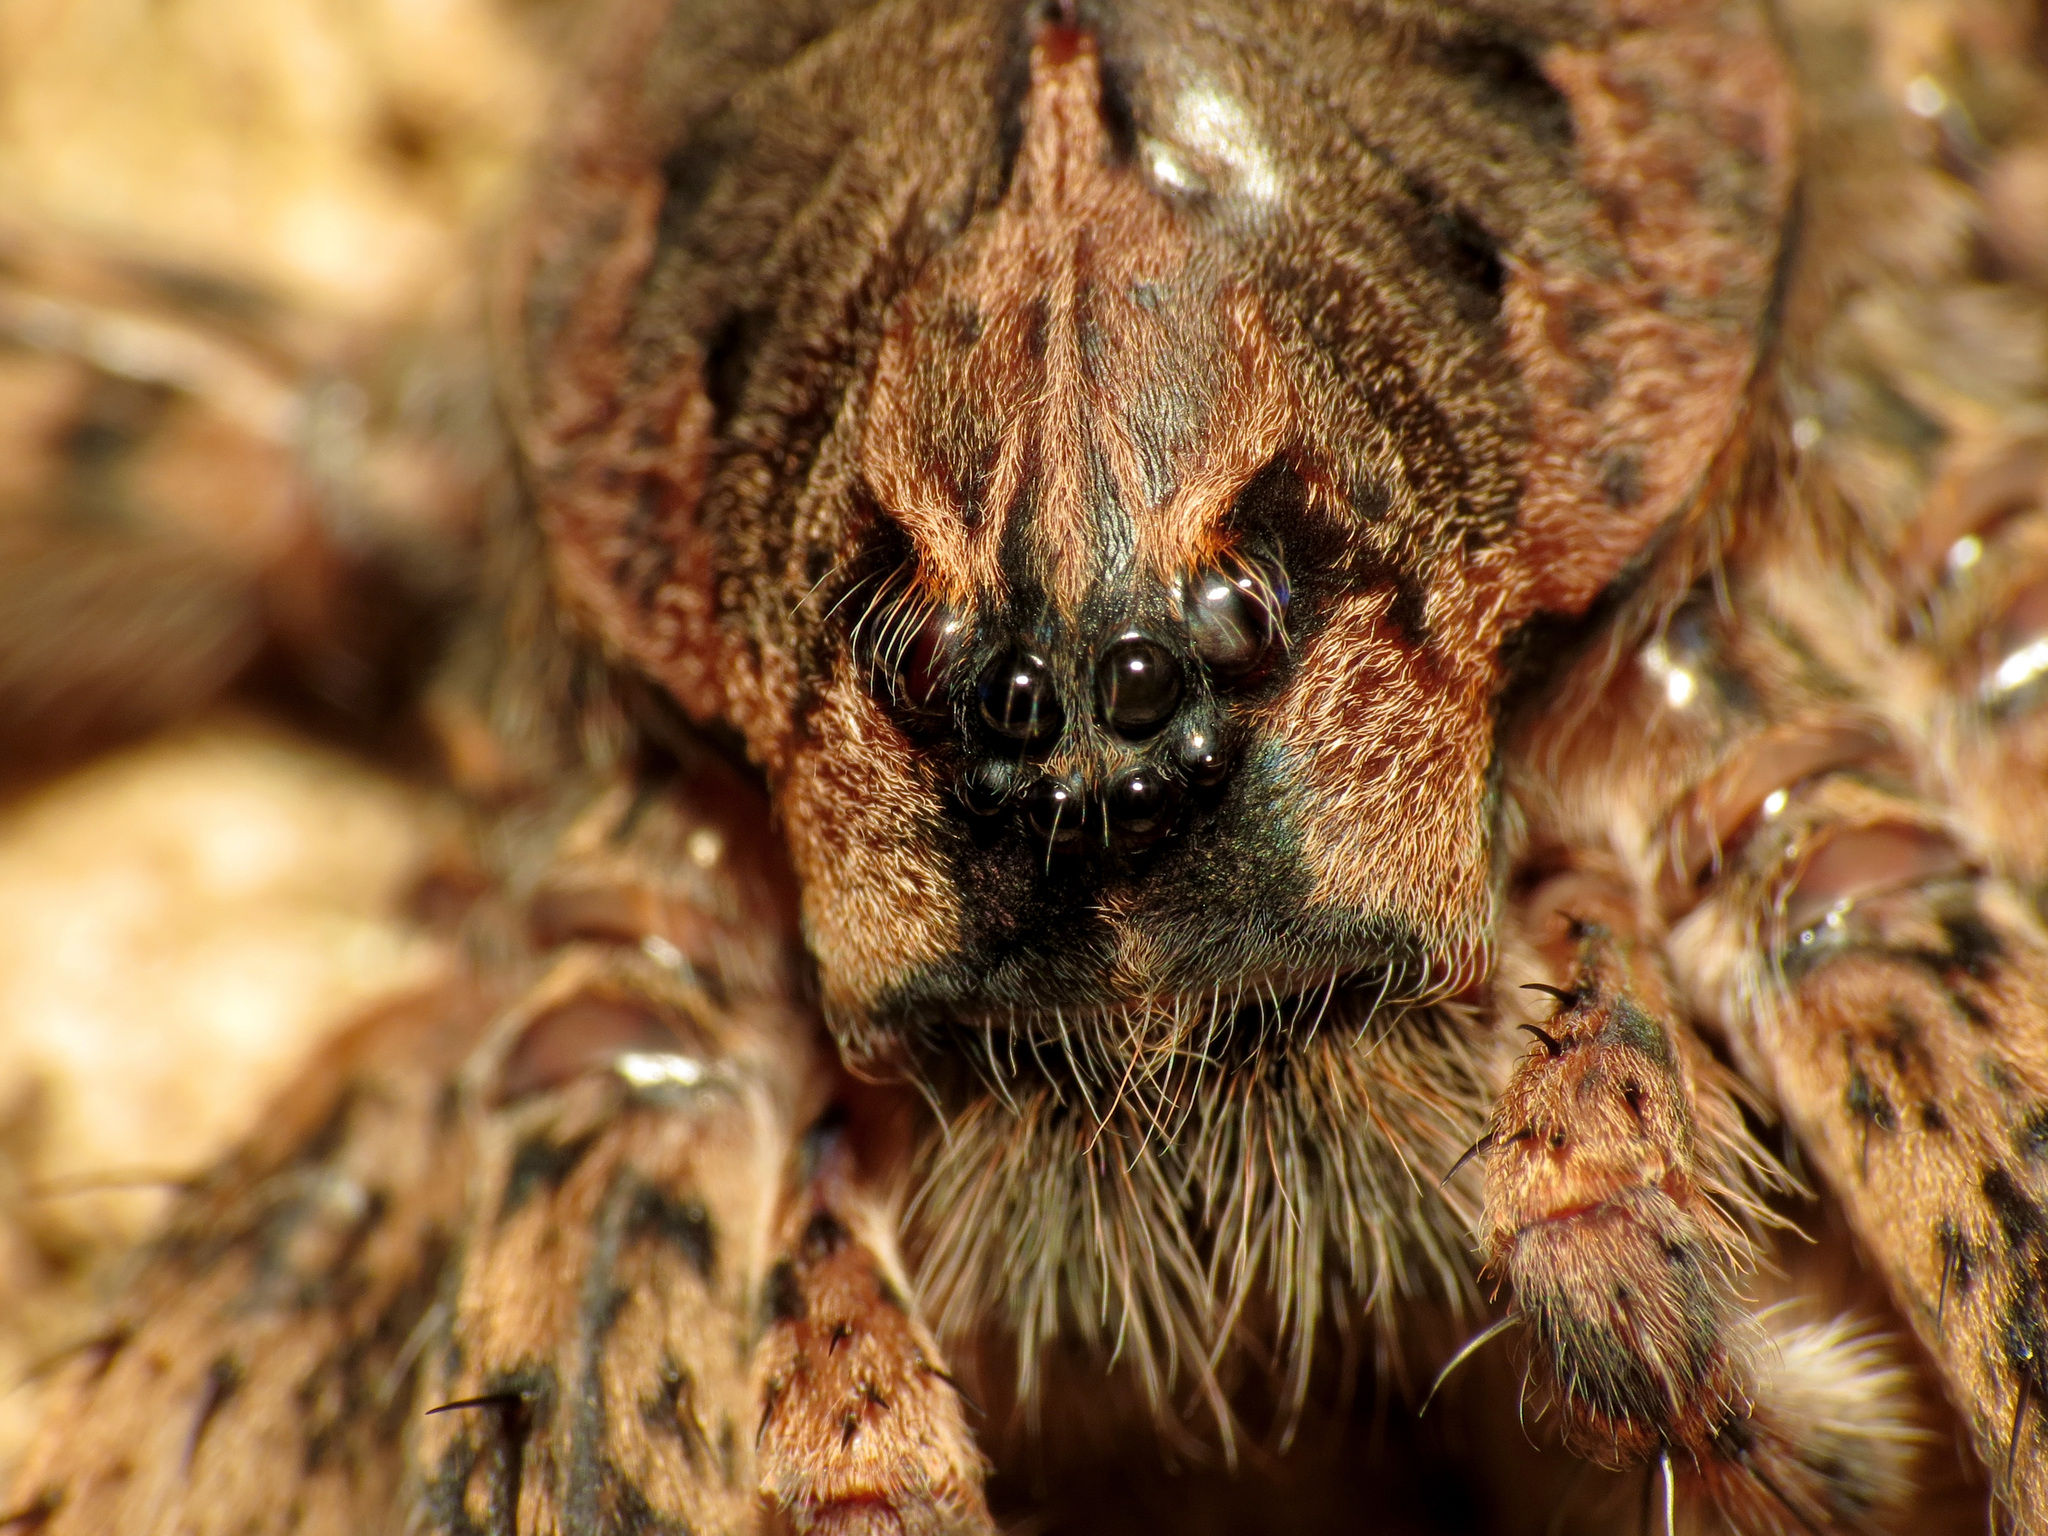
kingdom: Animalia
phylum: Arthropoda
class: Arachnida
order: Araneae
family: Pisauridae
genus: Dolomedes
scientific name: Dolomedes tenebrosus
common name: Dark fishing spider
